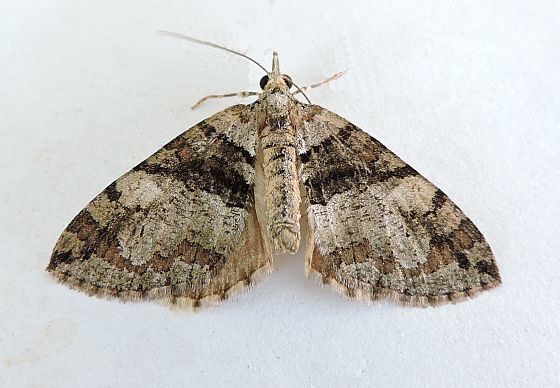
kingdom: Animalia
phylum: Arthropoda
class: Insecta
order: Lepidoptera
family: Geometridae
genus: Hydriomena
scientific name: Hydriomena barnesata
